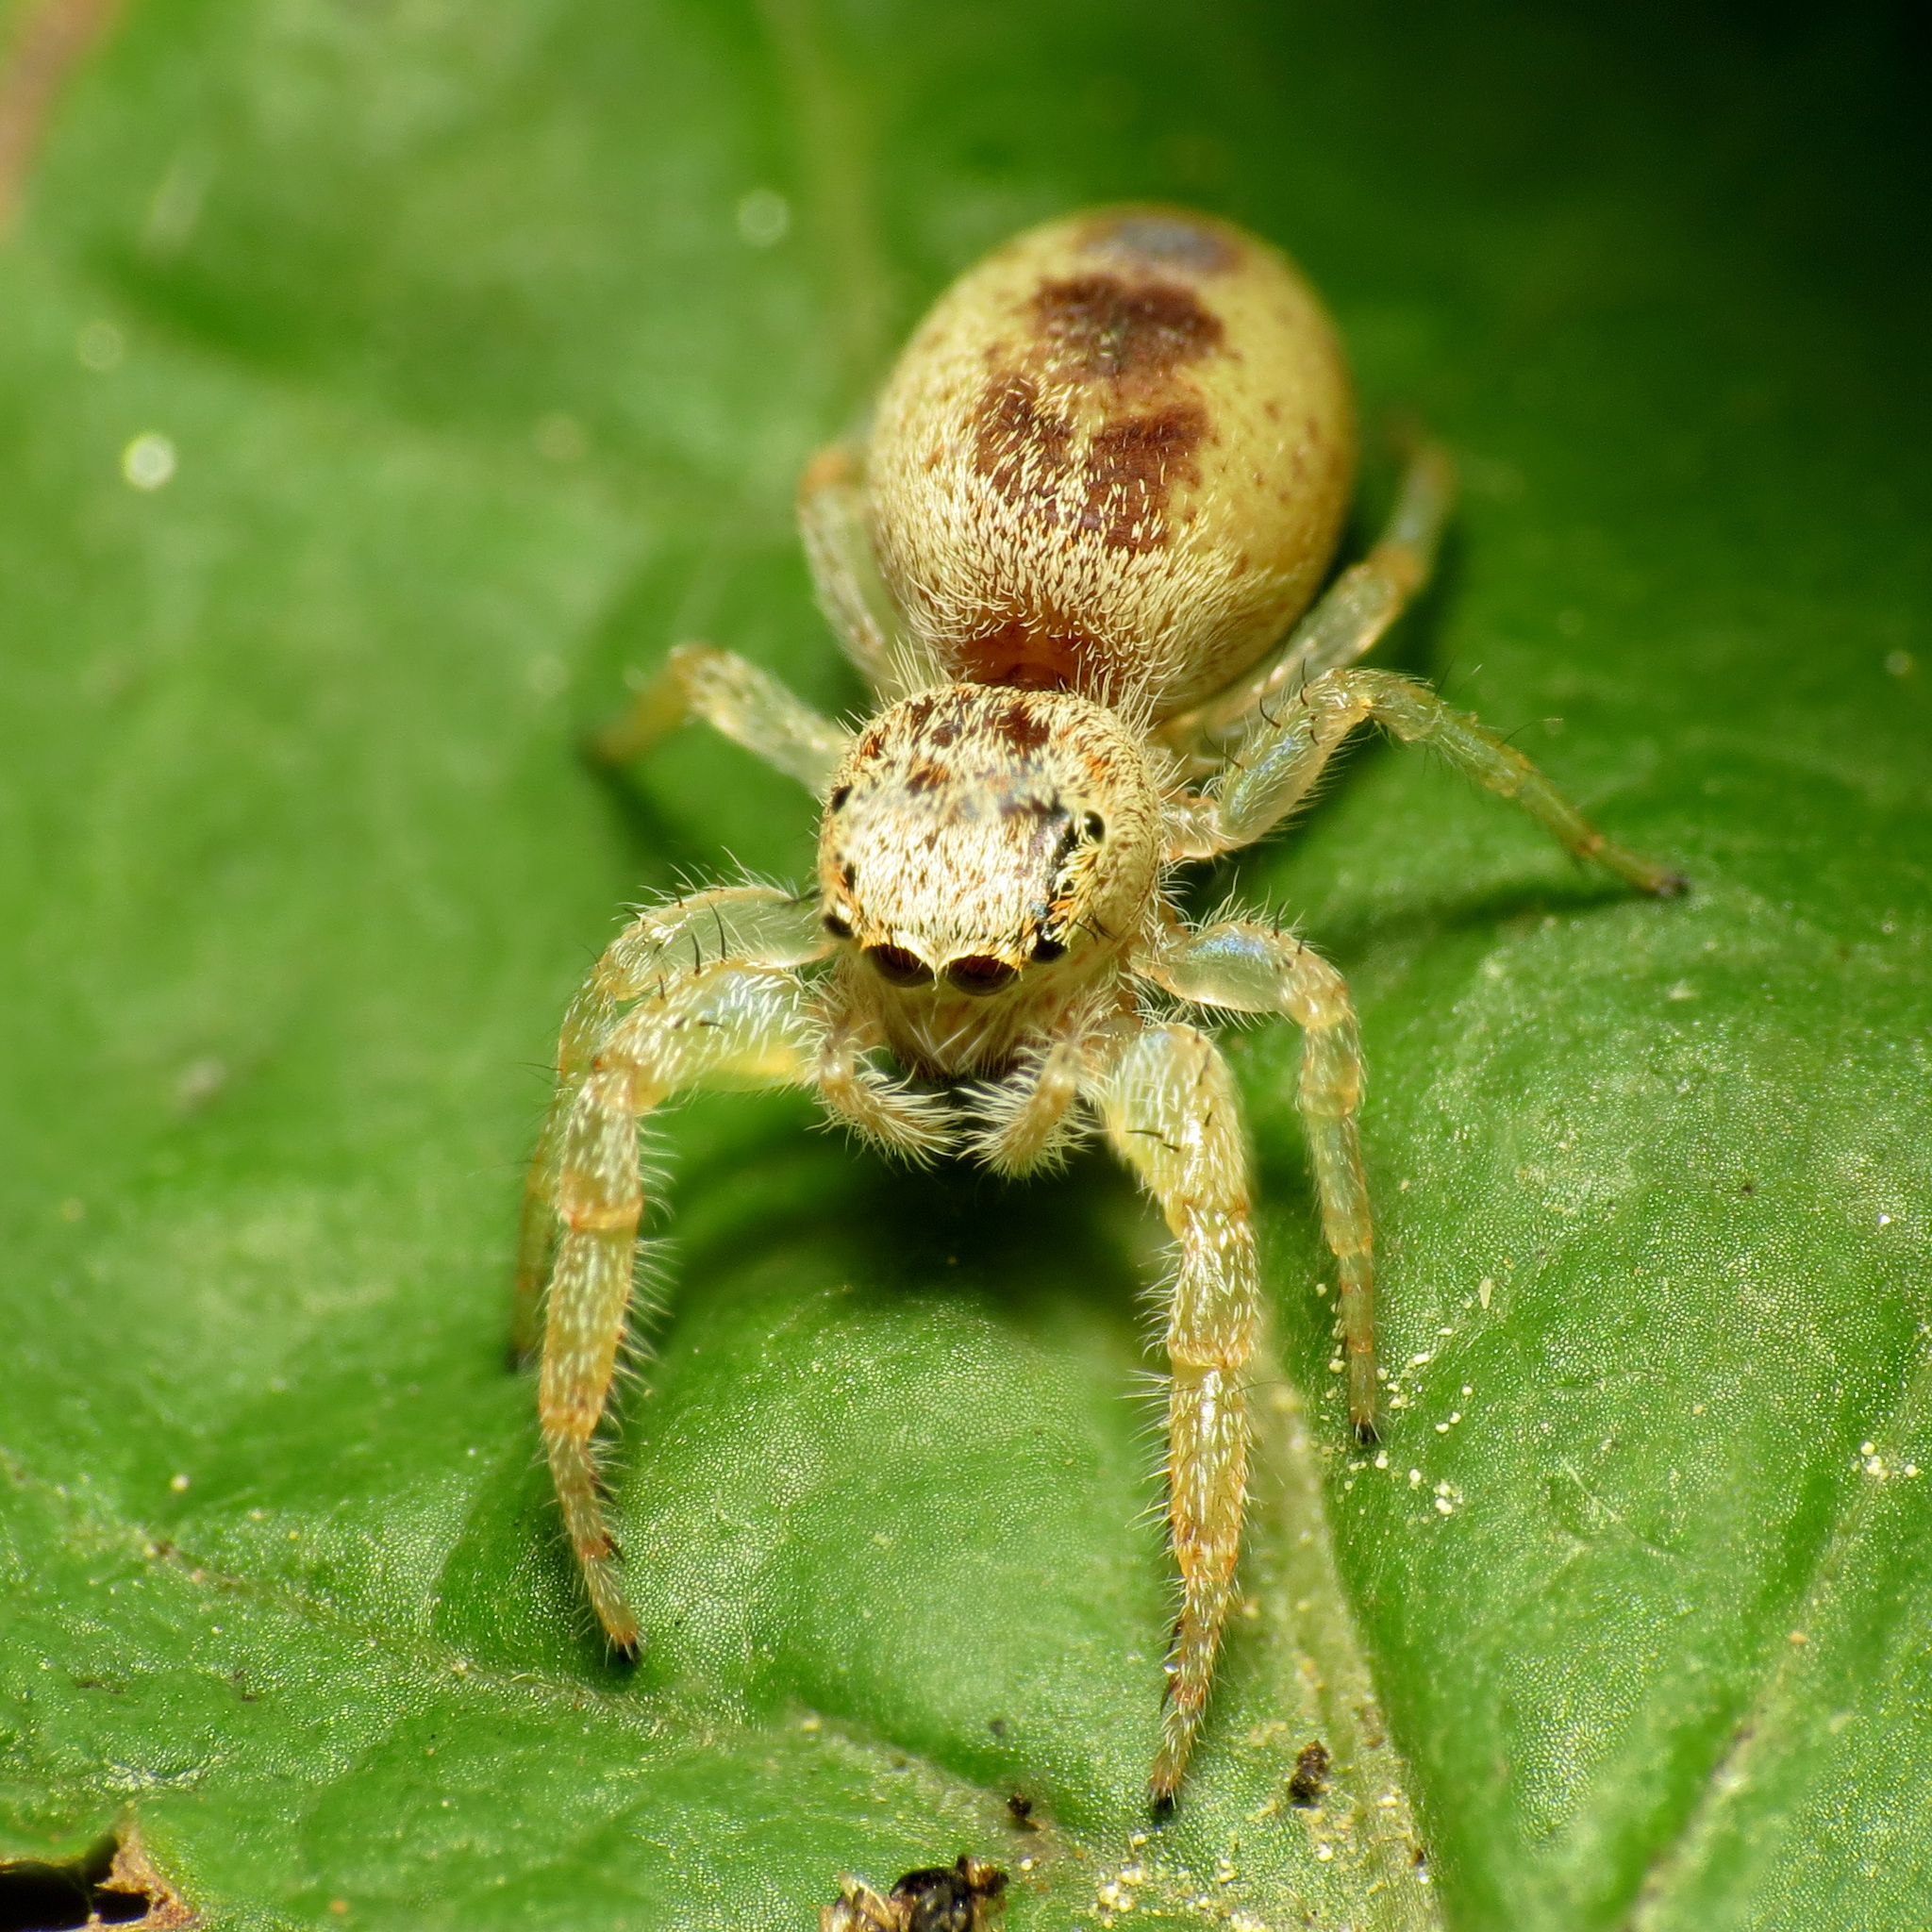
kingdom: Animalia
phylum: Arthropoda
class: Arachnida
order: Araneae
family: Salticidae
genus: Hentzia
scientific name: Hentzia mitrata
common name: White-jawed jumping spider
